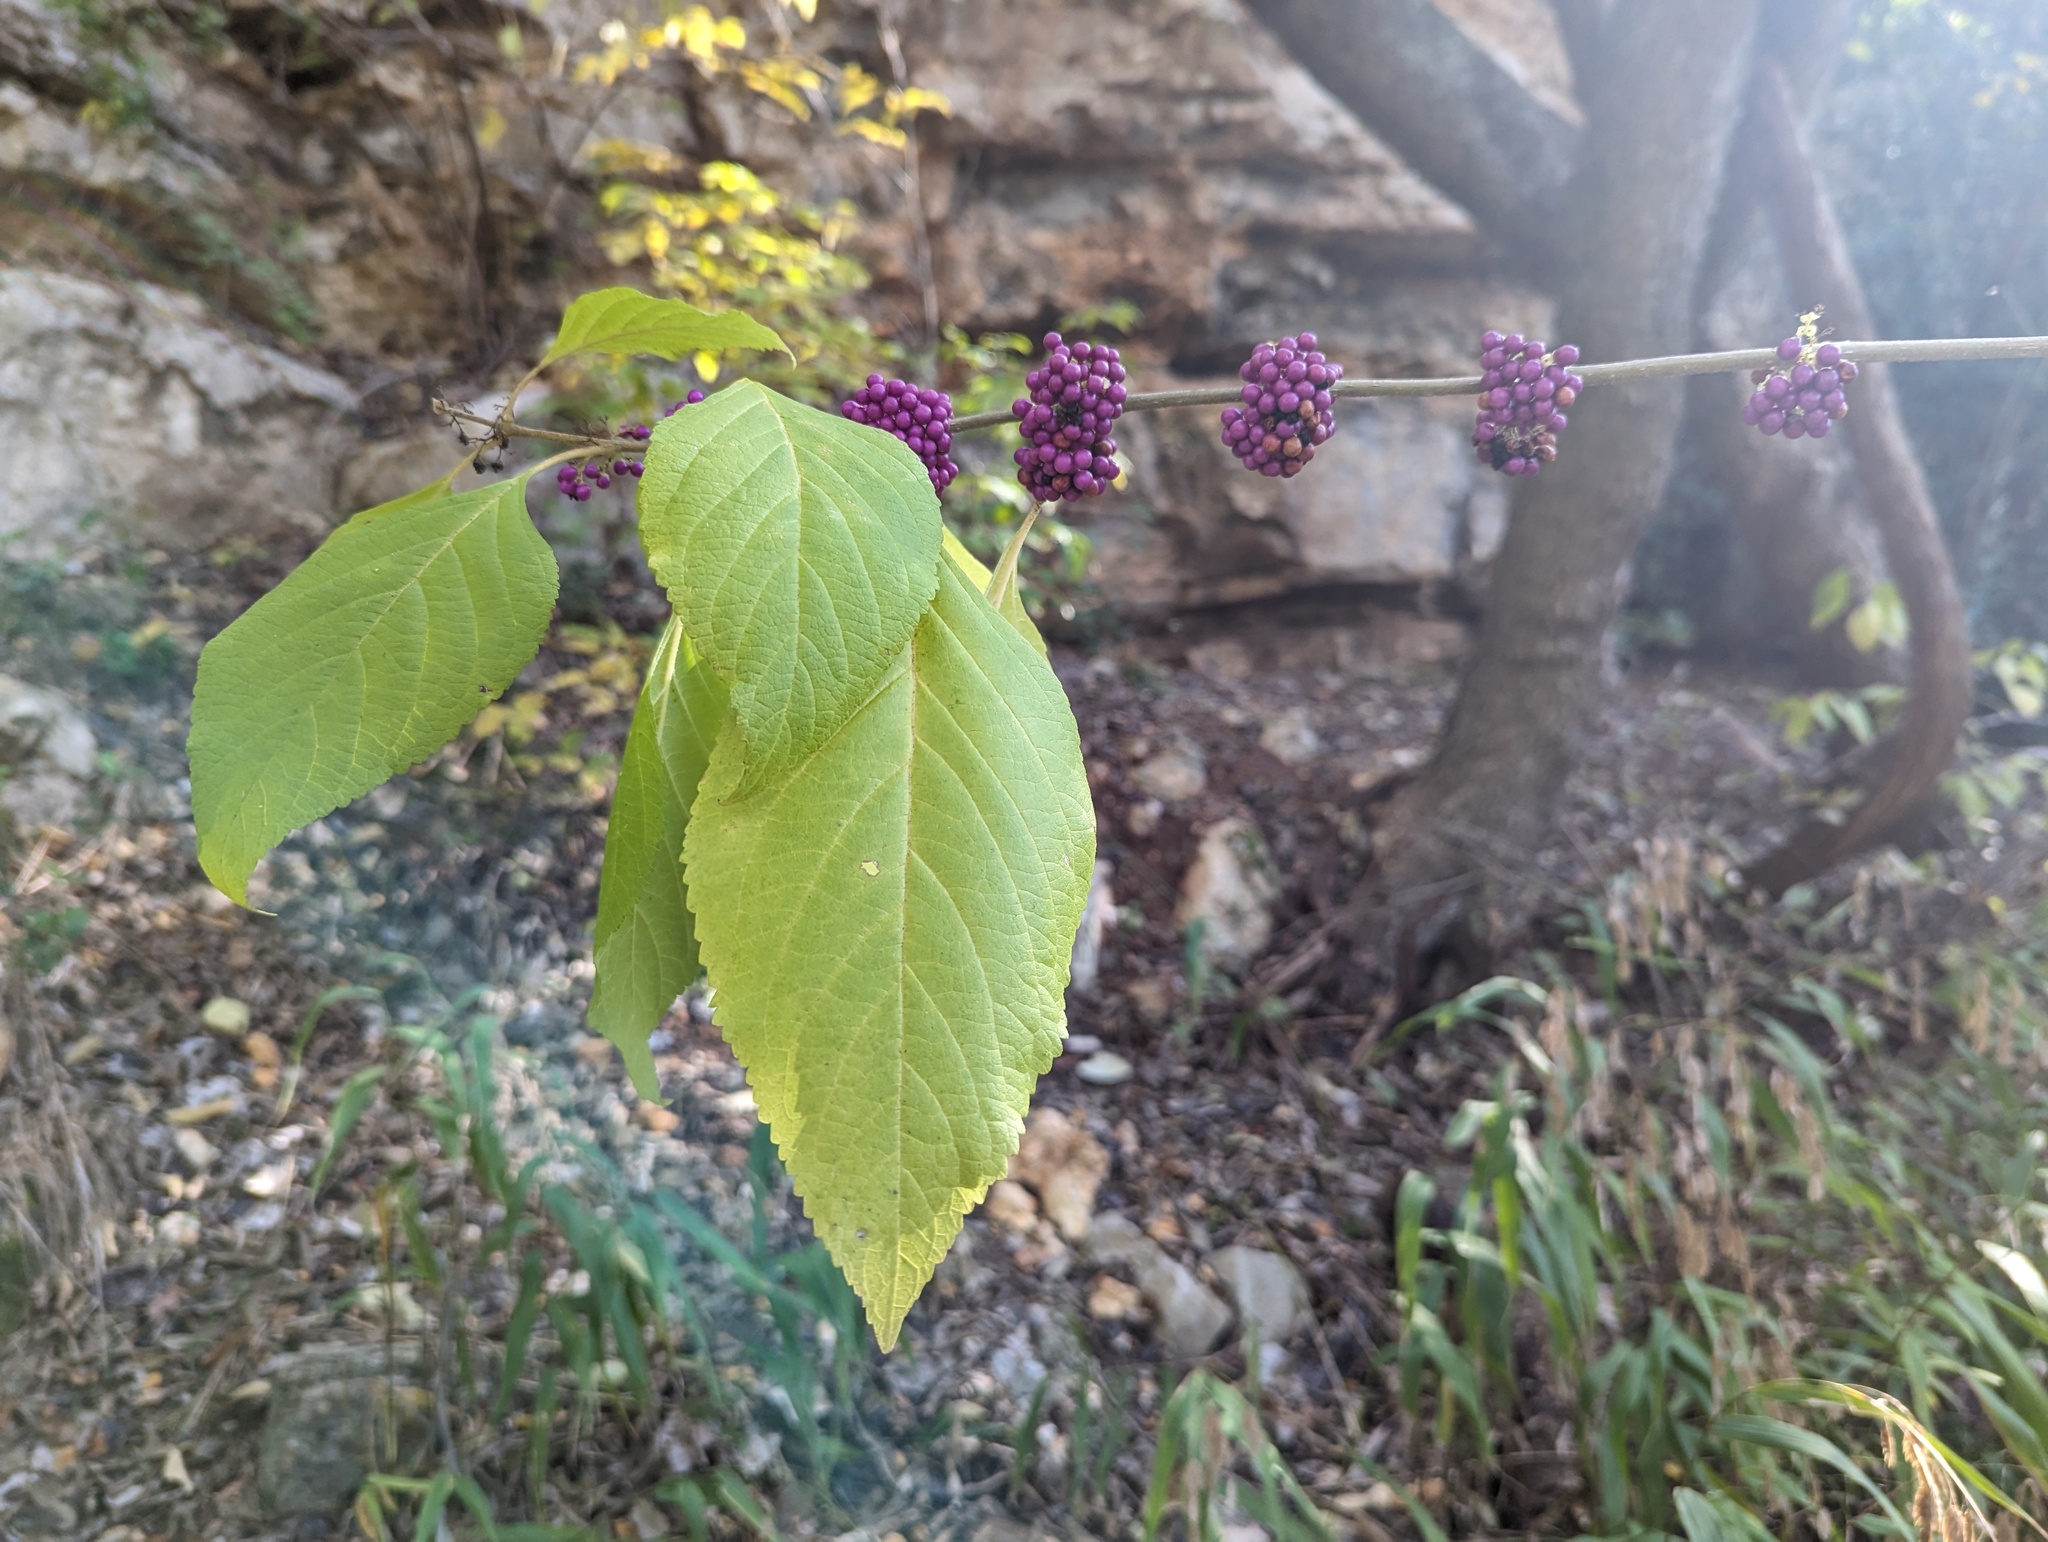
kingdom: Plantae
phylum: Tracheophyta
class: Magnoliopsida
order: Lamiales
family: Lamiaceae
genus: Callicarpa
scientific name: Callicarpa americana
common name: American beautyberry
